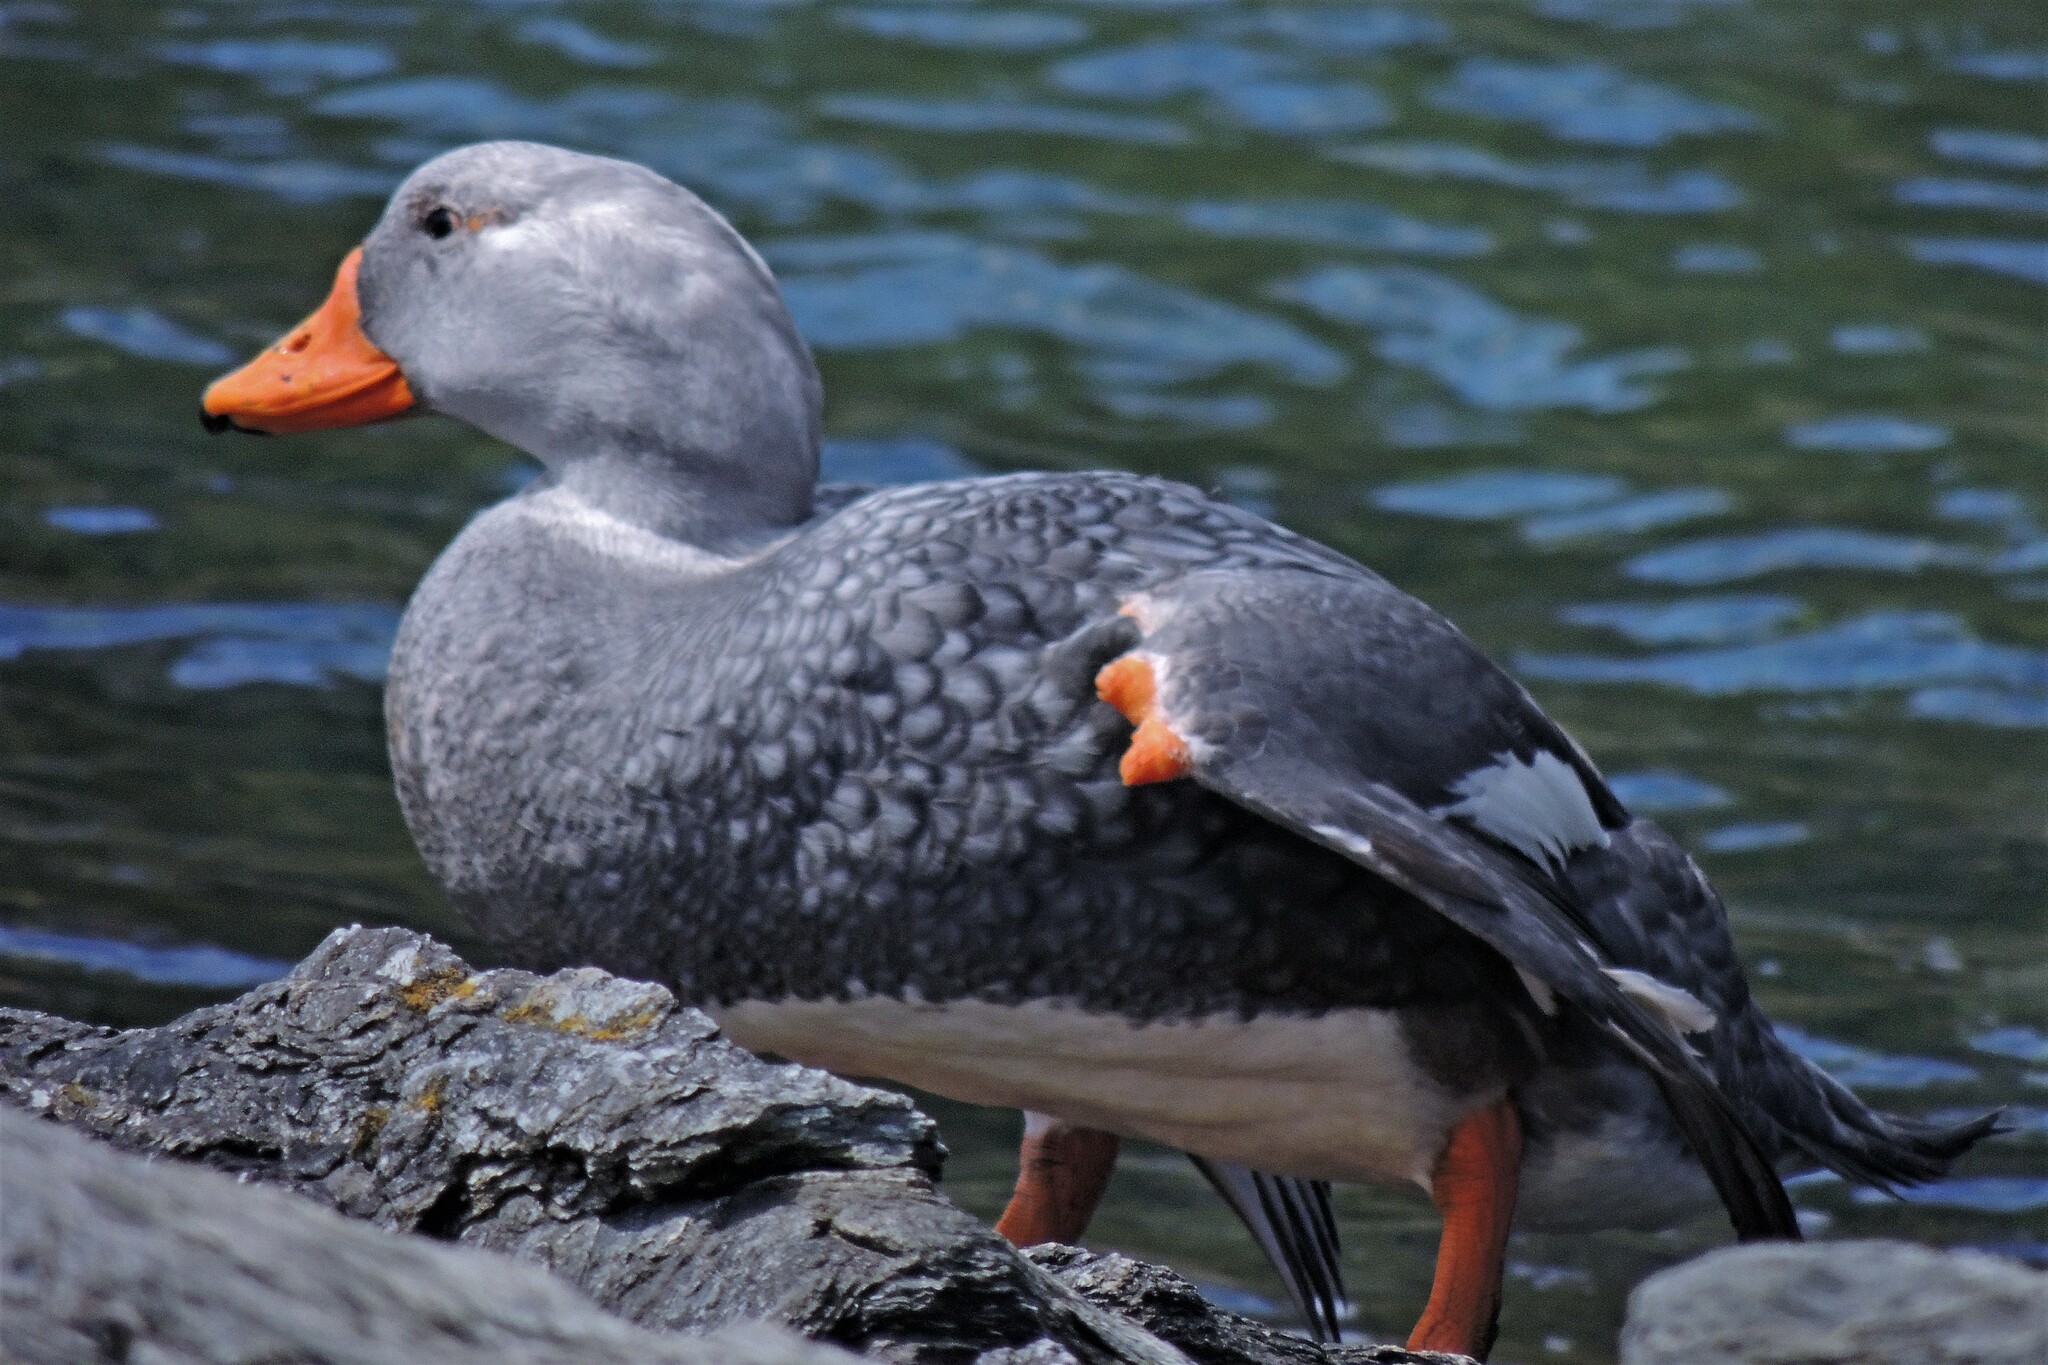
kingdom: Animalia
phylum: Chordata
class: Aves
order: Anseriformes
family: Anatidae
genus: Tachyeres
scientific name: Tachyeres pteneres
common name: Fuegian steamer duck
